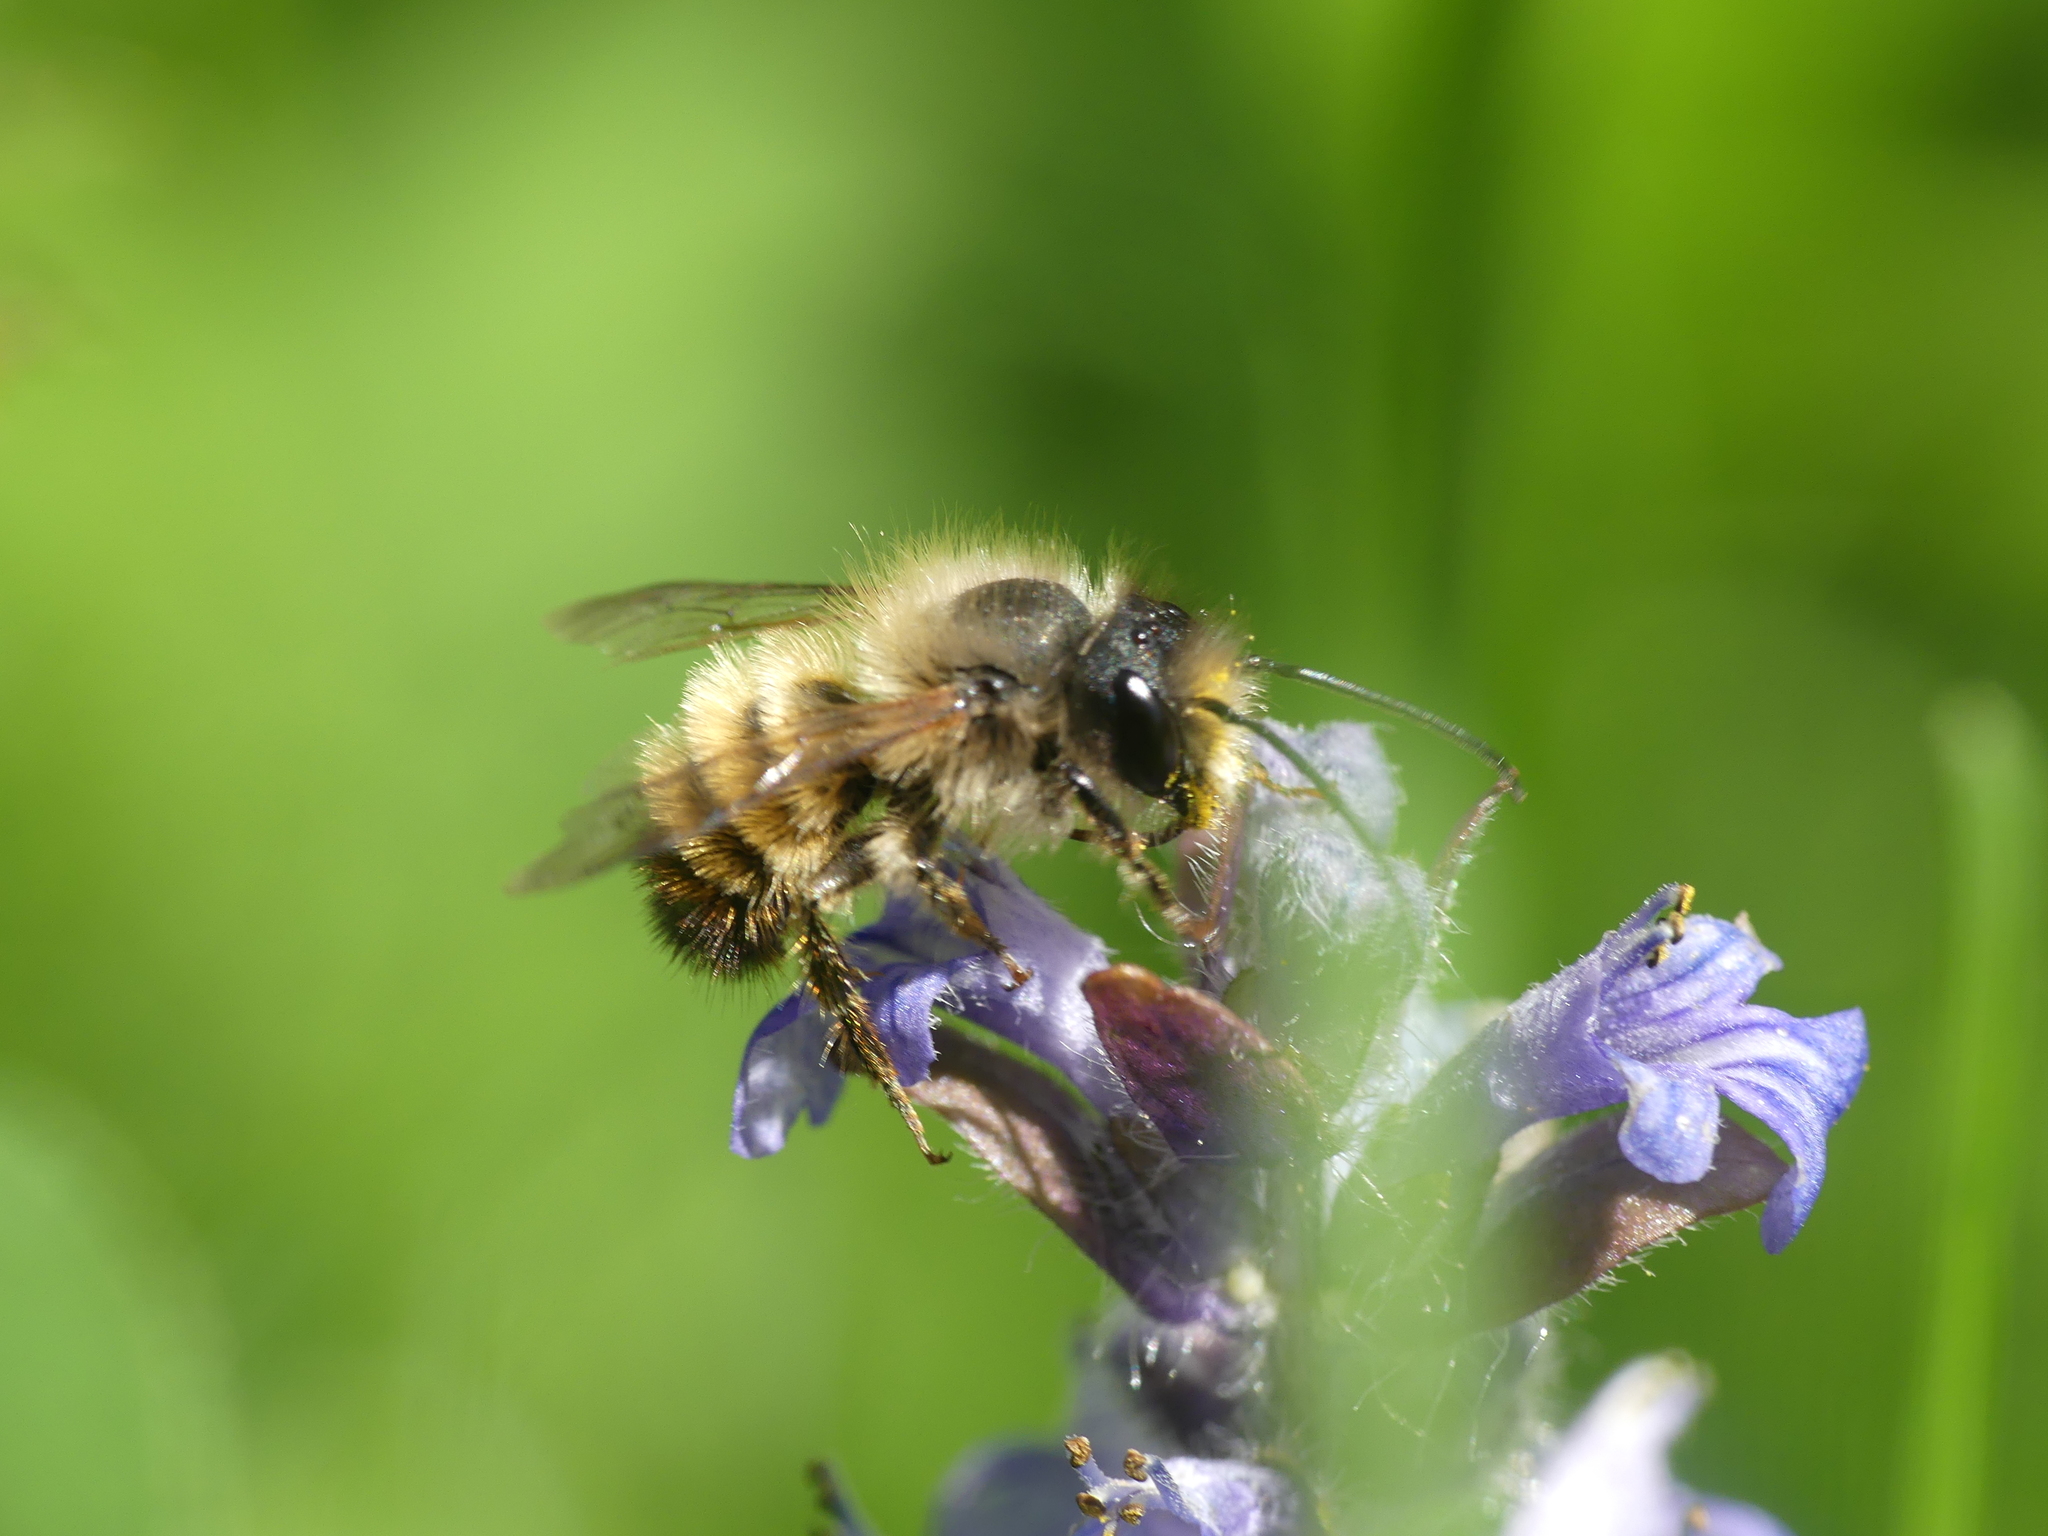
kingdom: Animalia
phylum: Arthropoda
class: Insecta
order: Hymenoptera
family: Megachilidae
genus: Osmia
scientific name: Osmia bicornis
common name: Red mason bee
